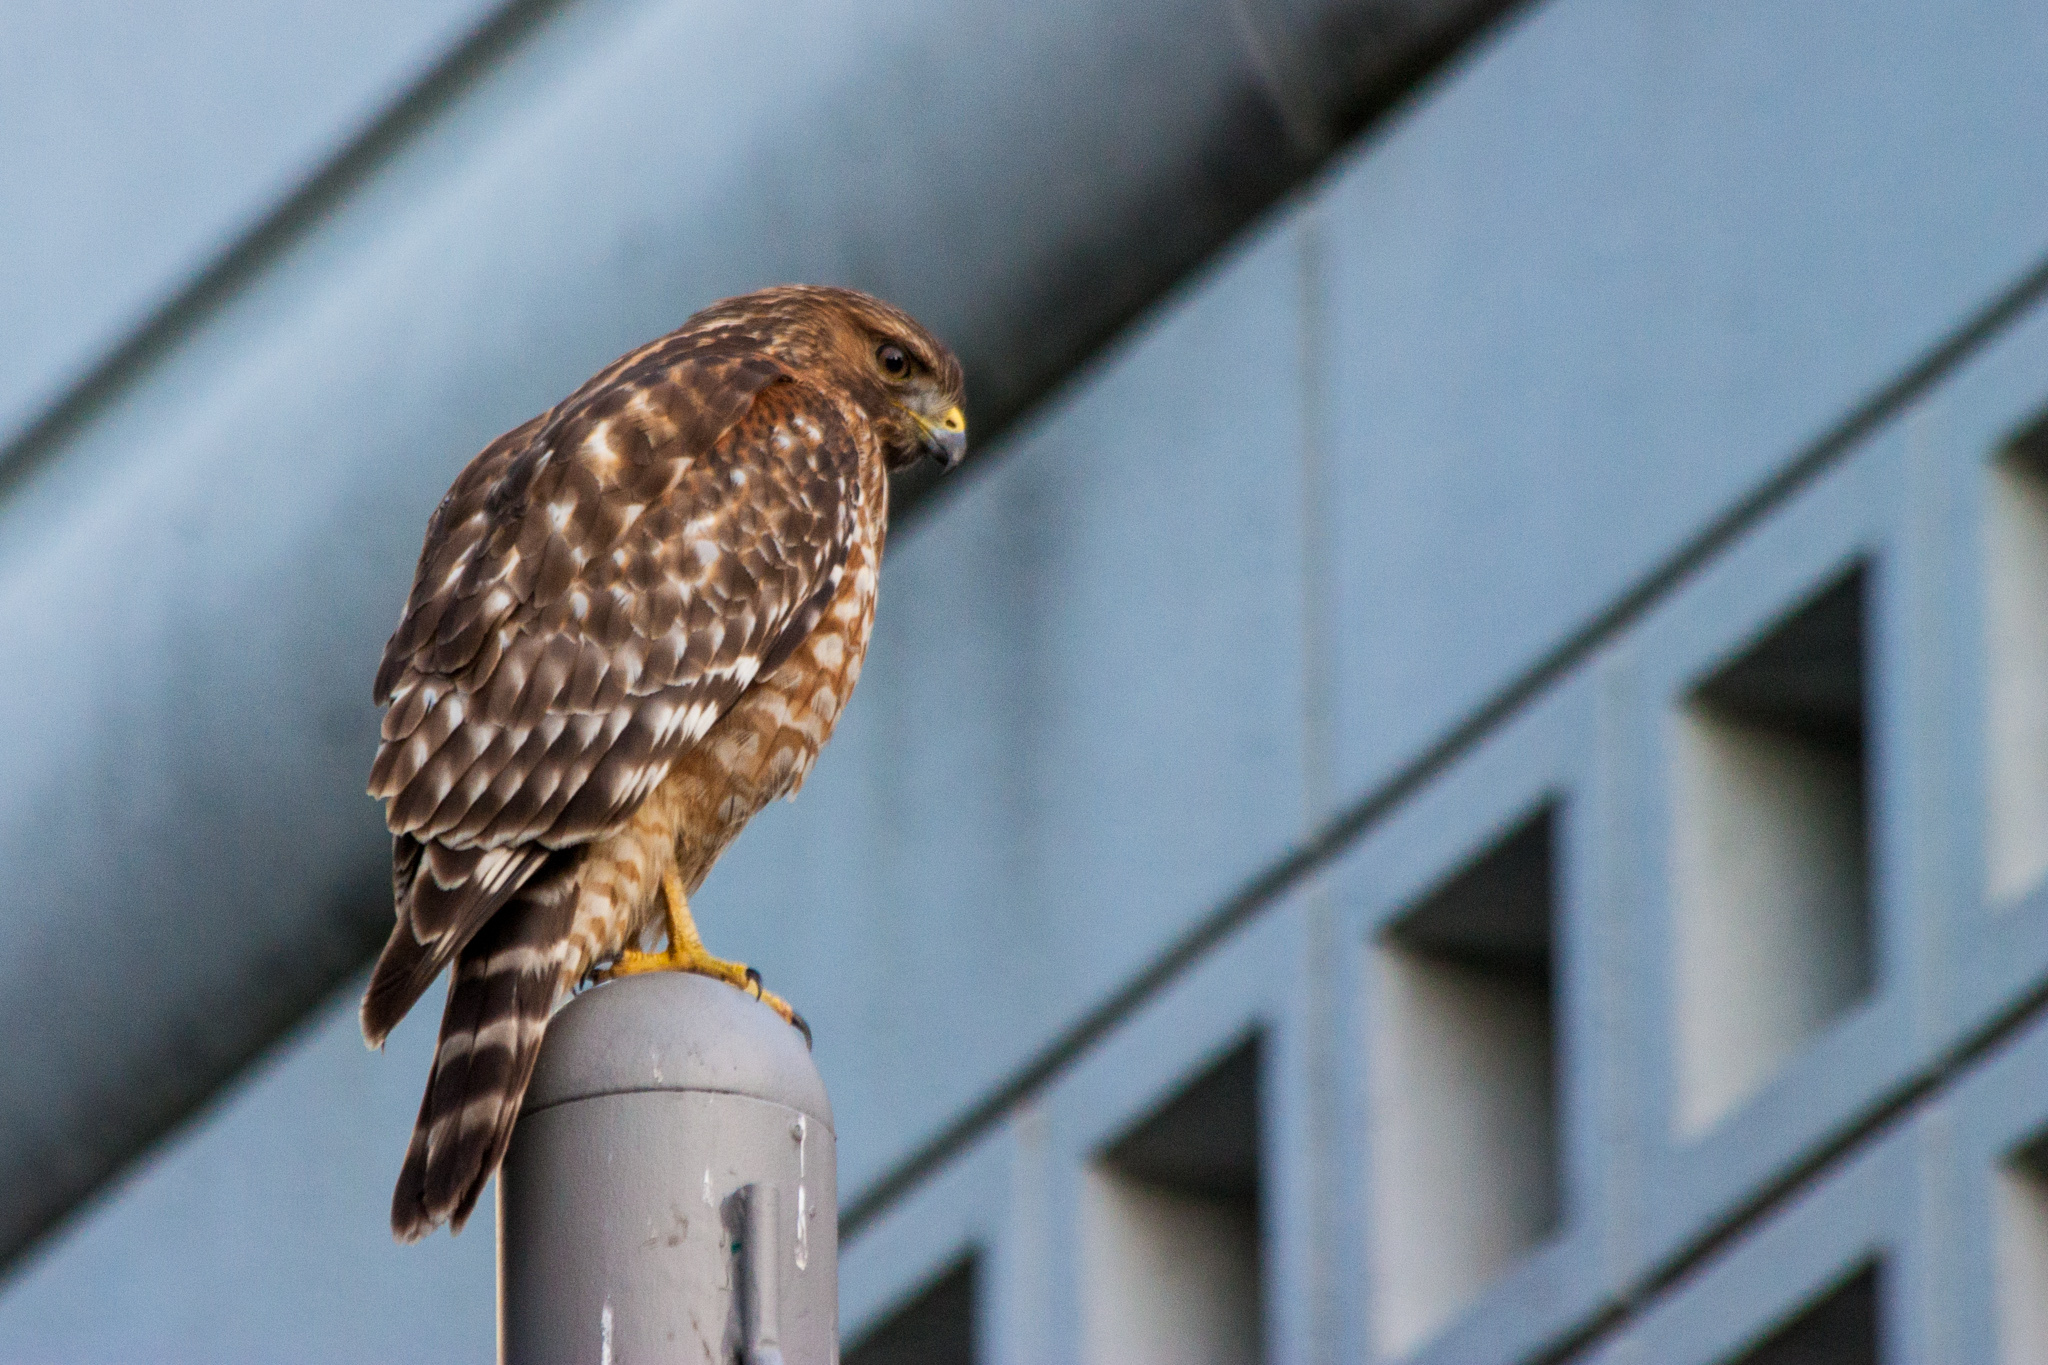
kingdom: Animalia
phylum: Chordata
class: Aves
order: Accipitriformes
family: Accipitridae
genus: Buteo
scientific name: Buteo lineatus
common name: Red-shouldered hawk
